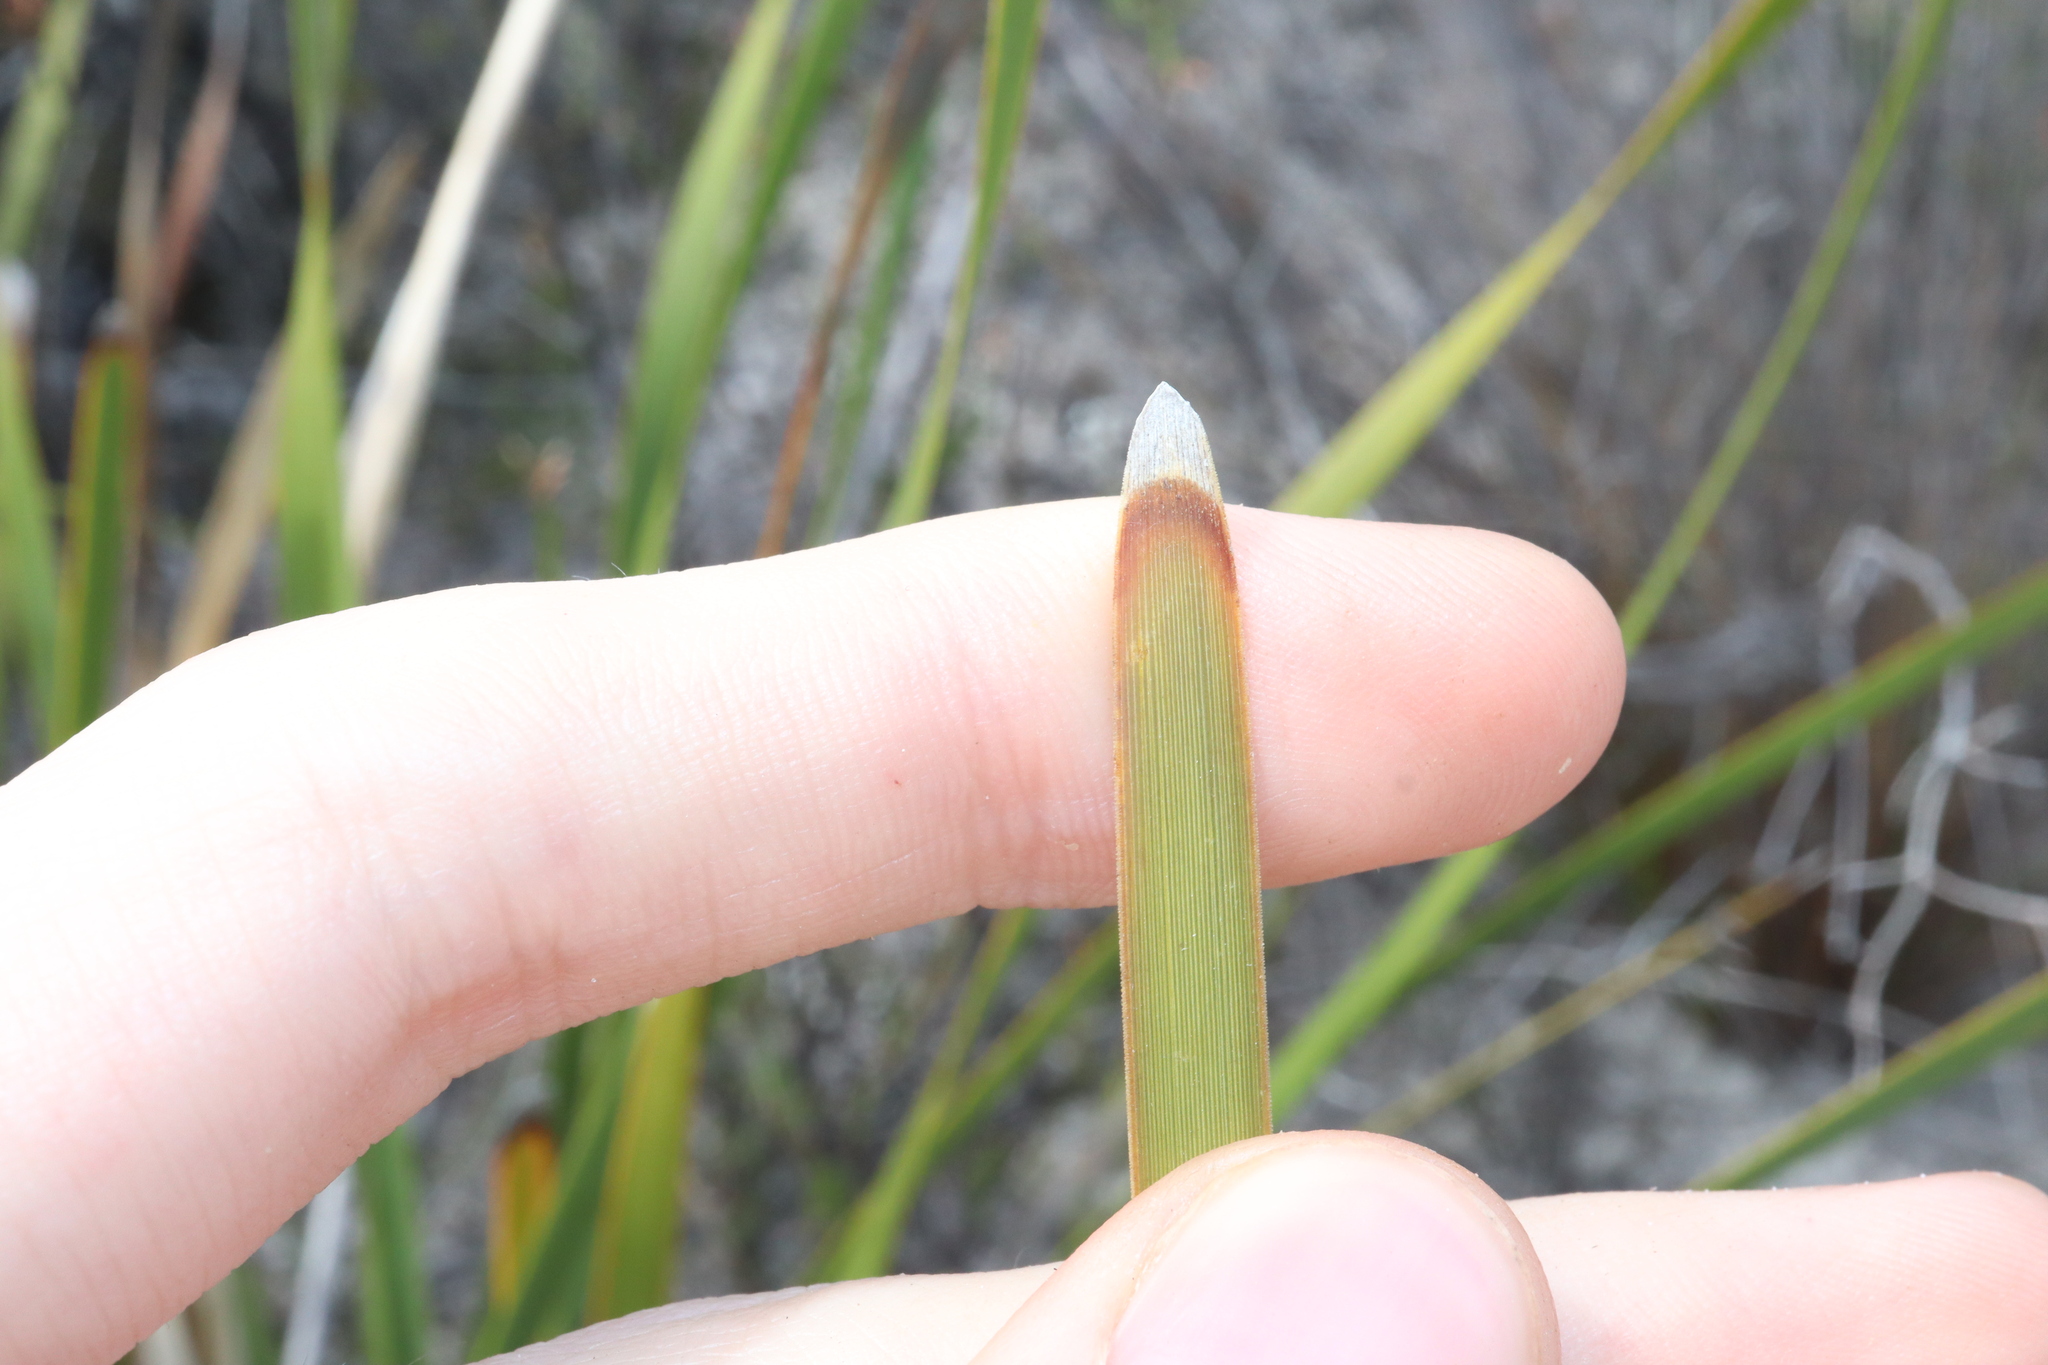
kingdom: Plantae
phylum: Tracheophyta
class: Liliopsida
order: Asparagales
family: Asparagaceae
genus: Lomandra
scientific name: Lomandra hastilis
